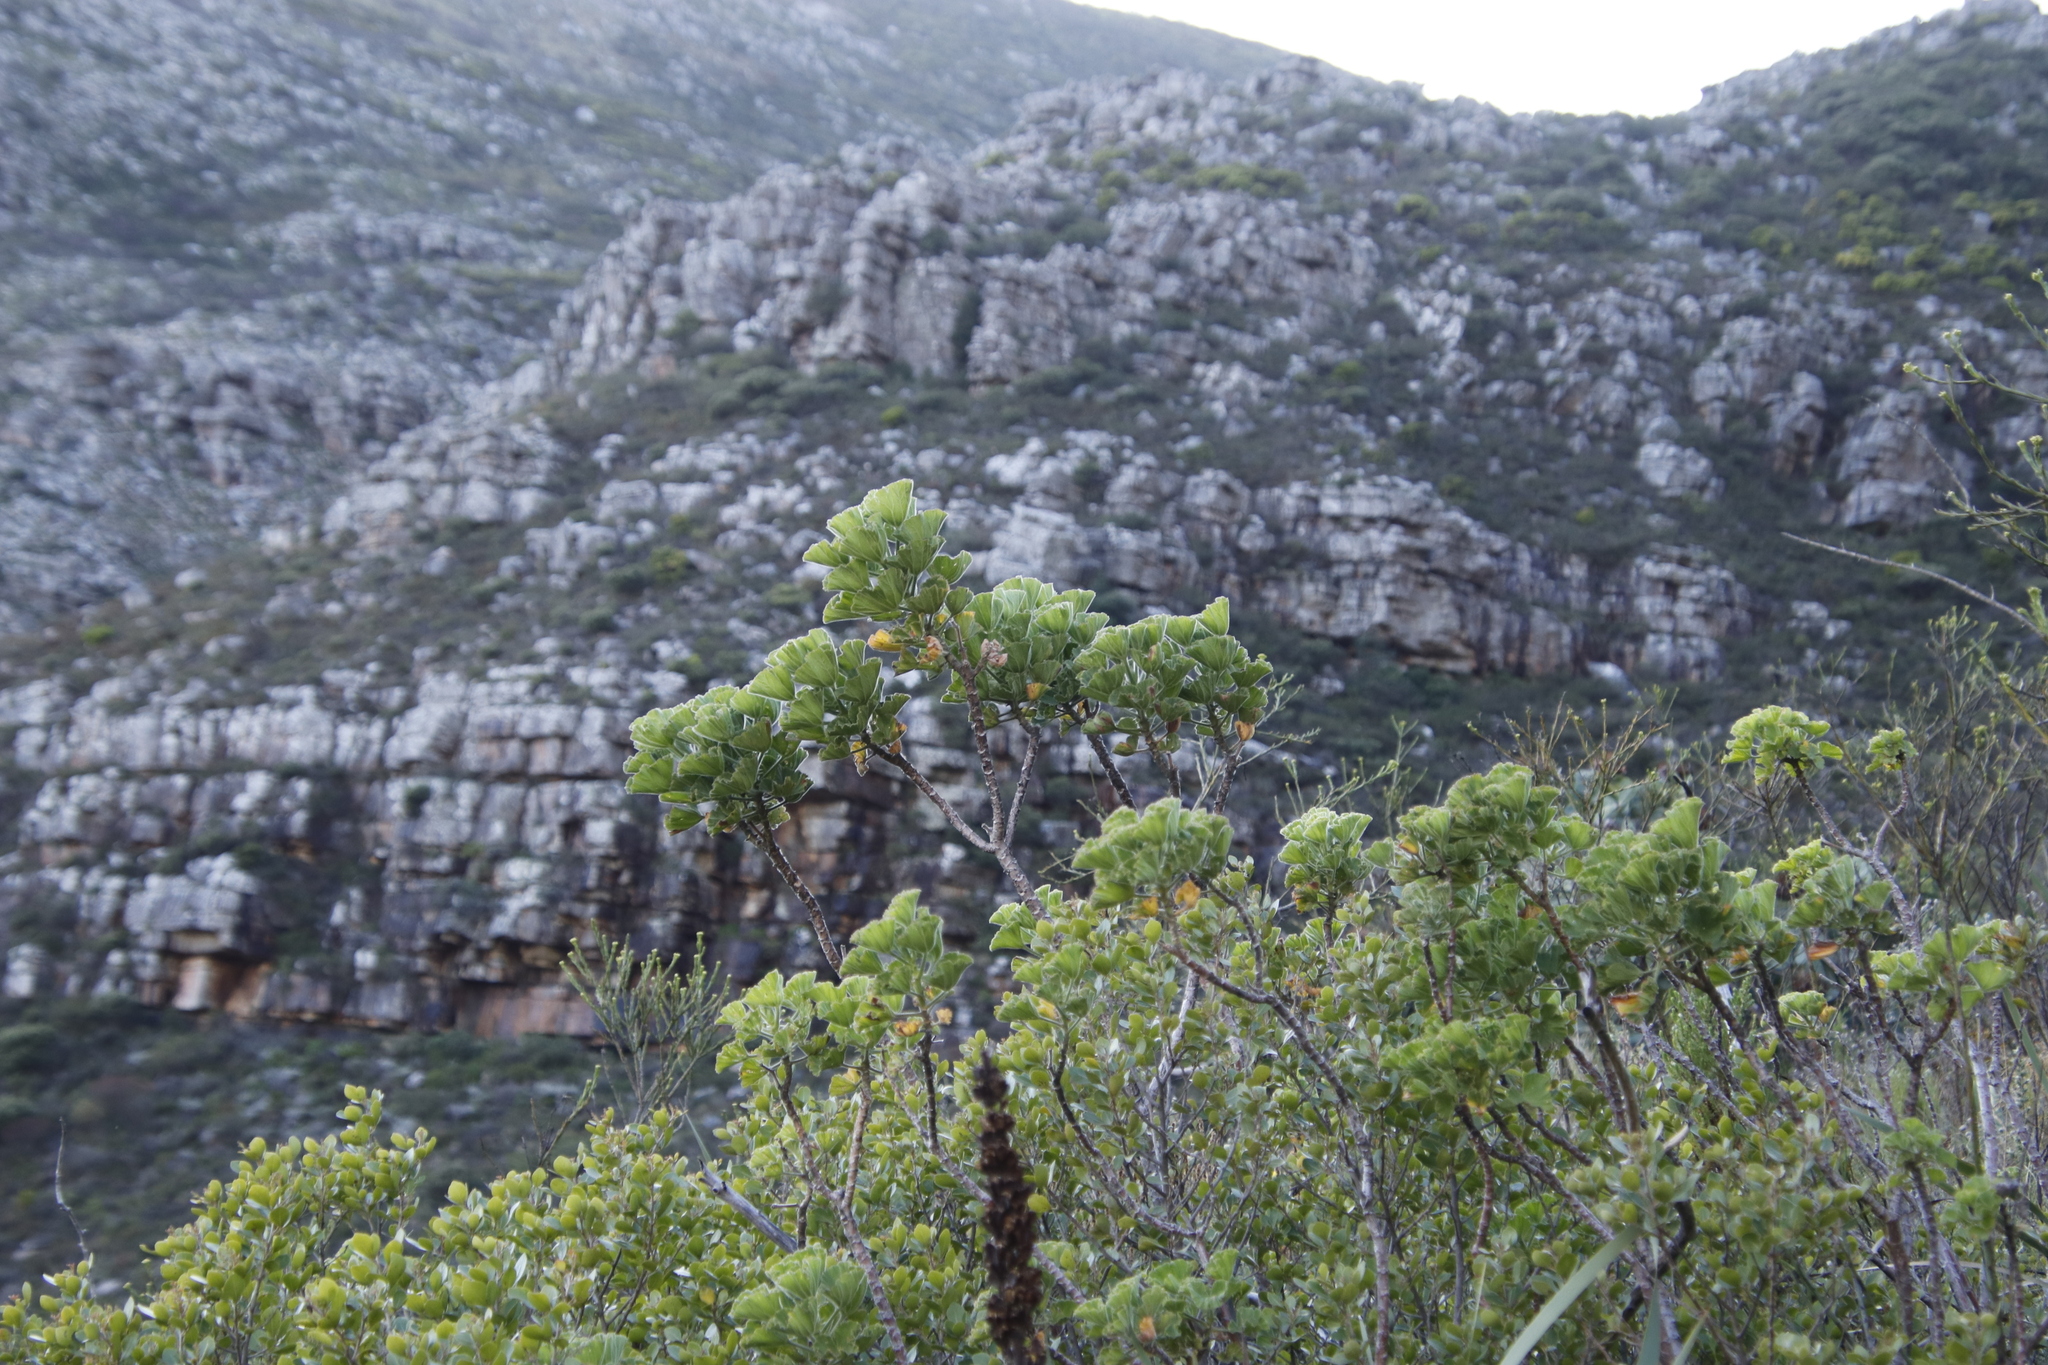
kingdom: Plantae
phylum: Tracheophyta
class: Magnoliopsida
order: Geraniales
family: Geraniaceae
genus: Pelargonium
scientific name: Pelargonium cucullatum
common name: Tree pelargonium
